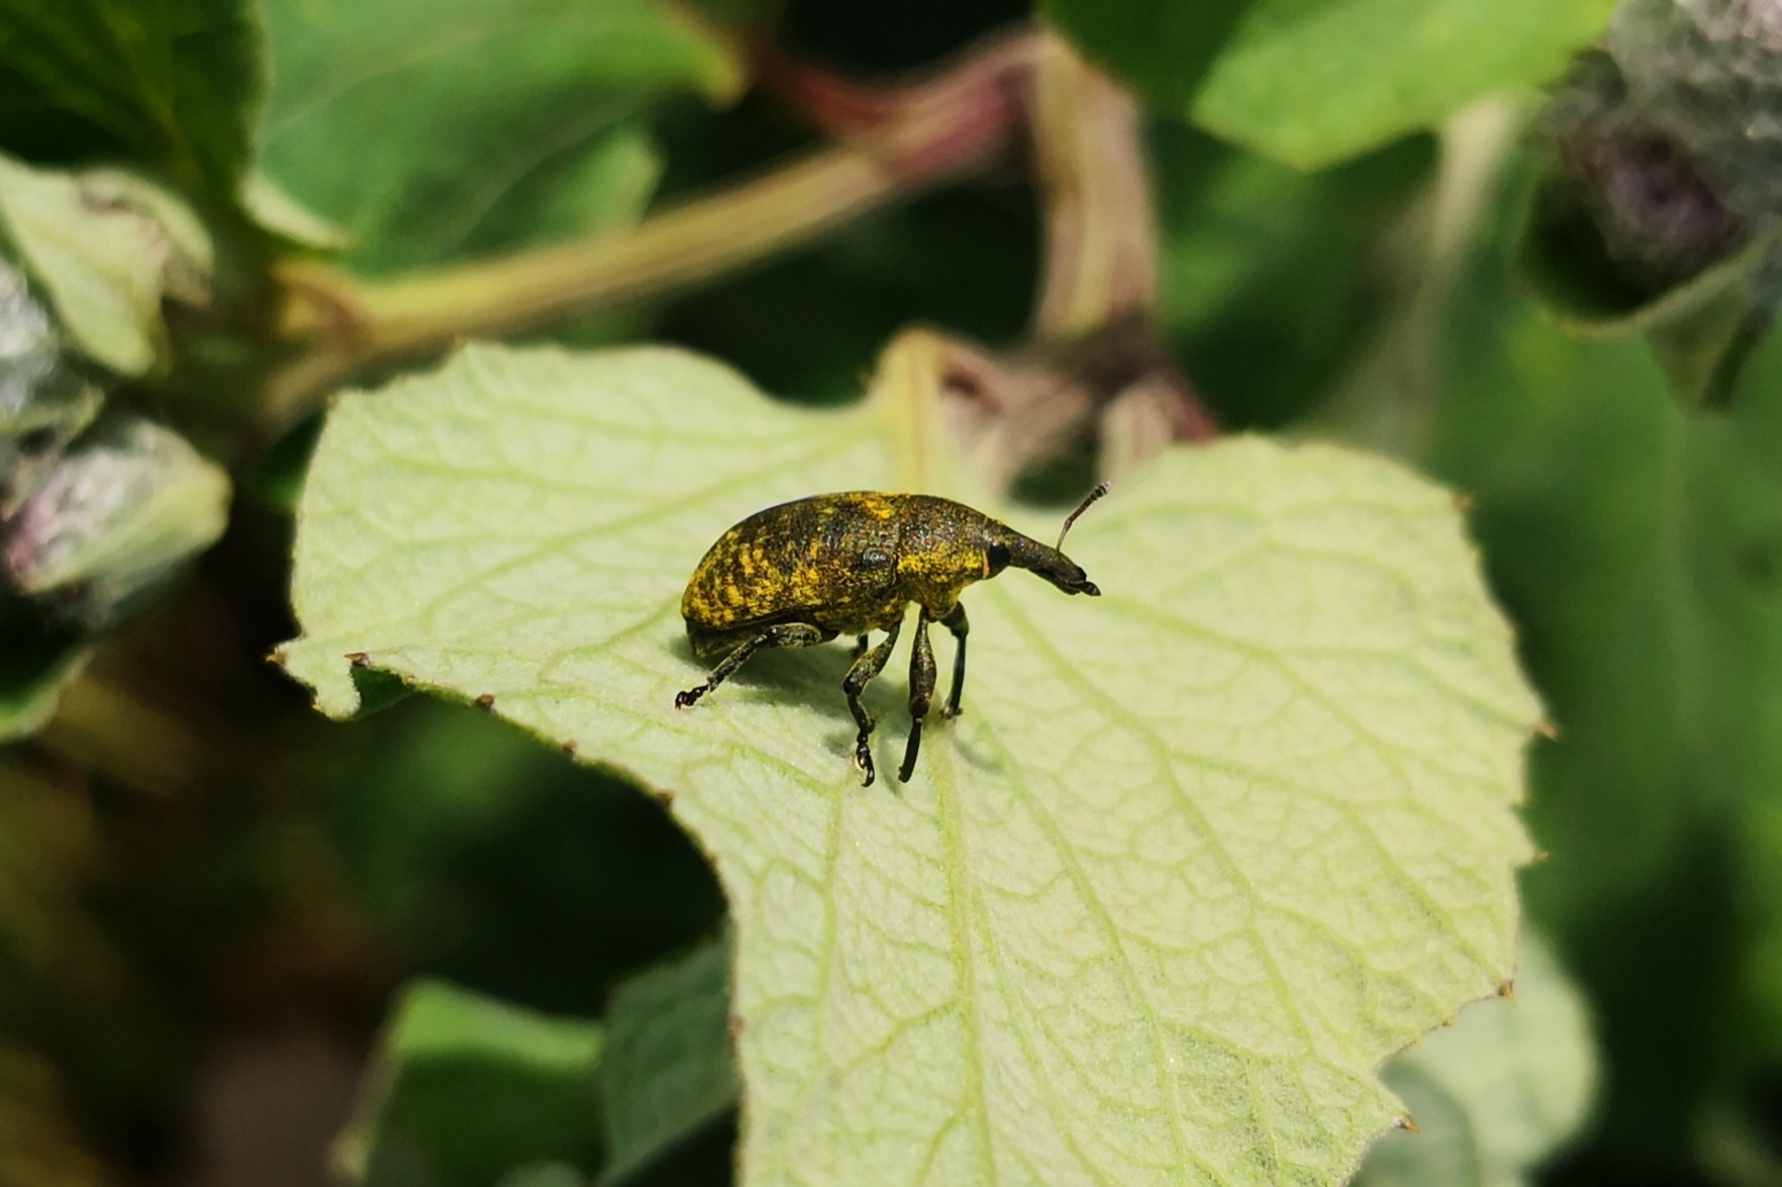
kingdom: Animalia
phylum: Arthropoda
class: Insecta
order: Coleoptera
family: Curculionidae
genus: Larinus
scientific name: Larinus sturnus
